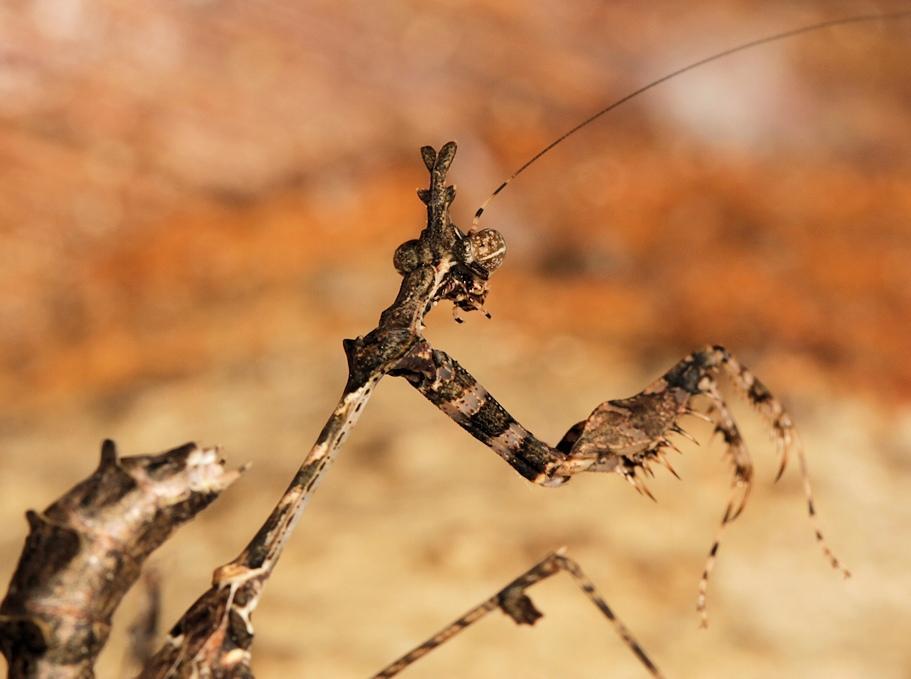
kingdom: Animalia
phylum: Arthropoda
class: Insecta
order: Mantodea
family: Hymenopodidae
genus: Sibylla
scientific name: Sibylla pretiosa
